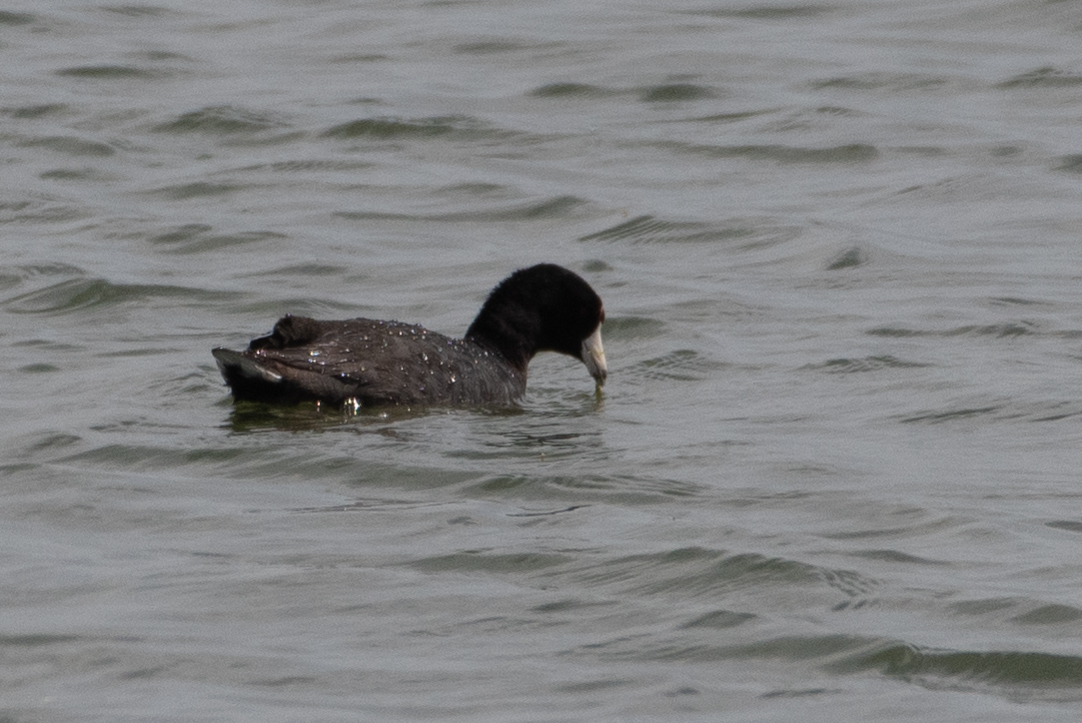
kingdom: Animalia
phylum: Chordata
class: Aves
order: Gruiformes
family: Rallidae
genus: Fulica
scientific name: Fulica americana
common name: American coot
